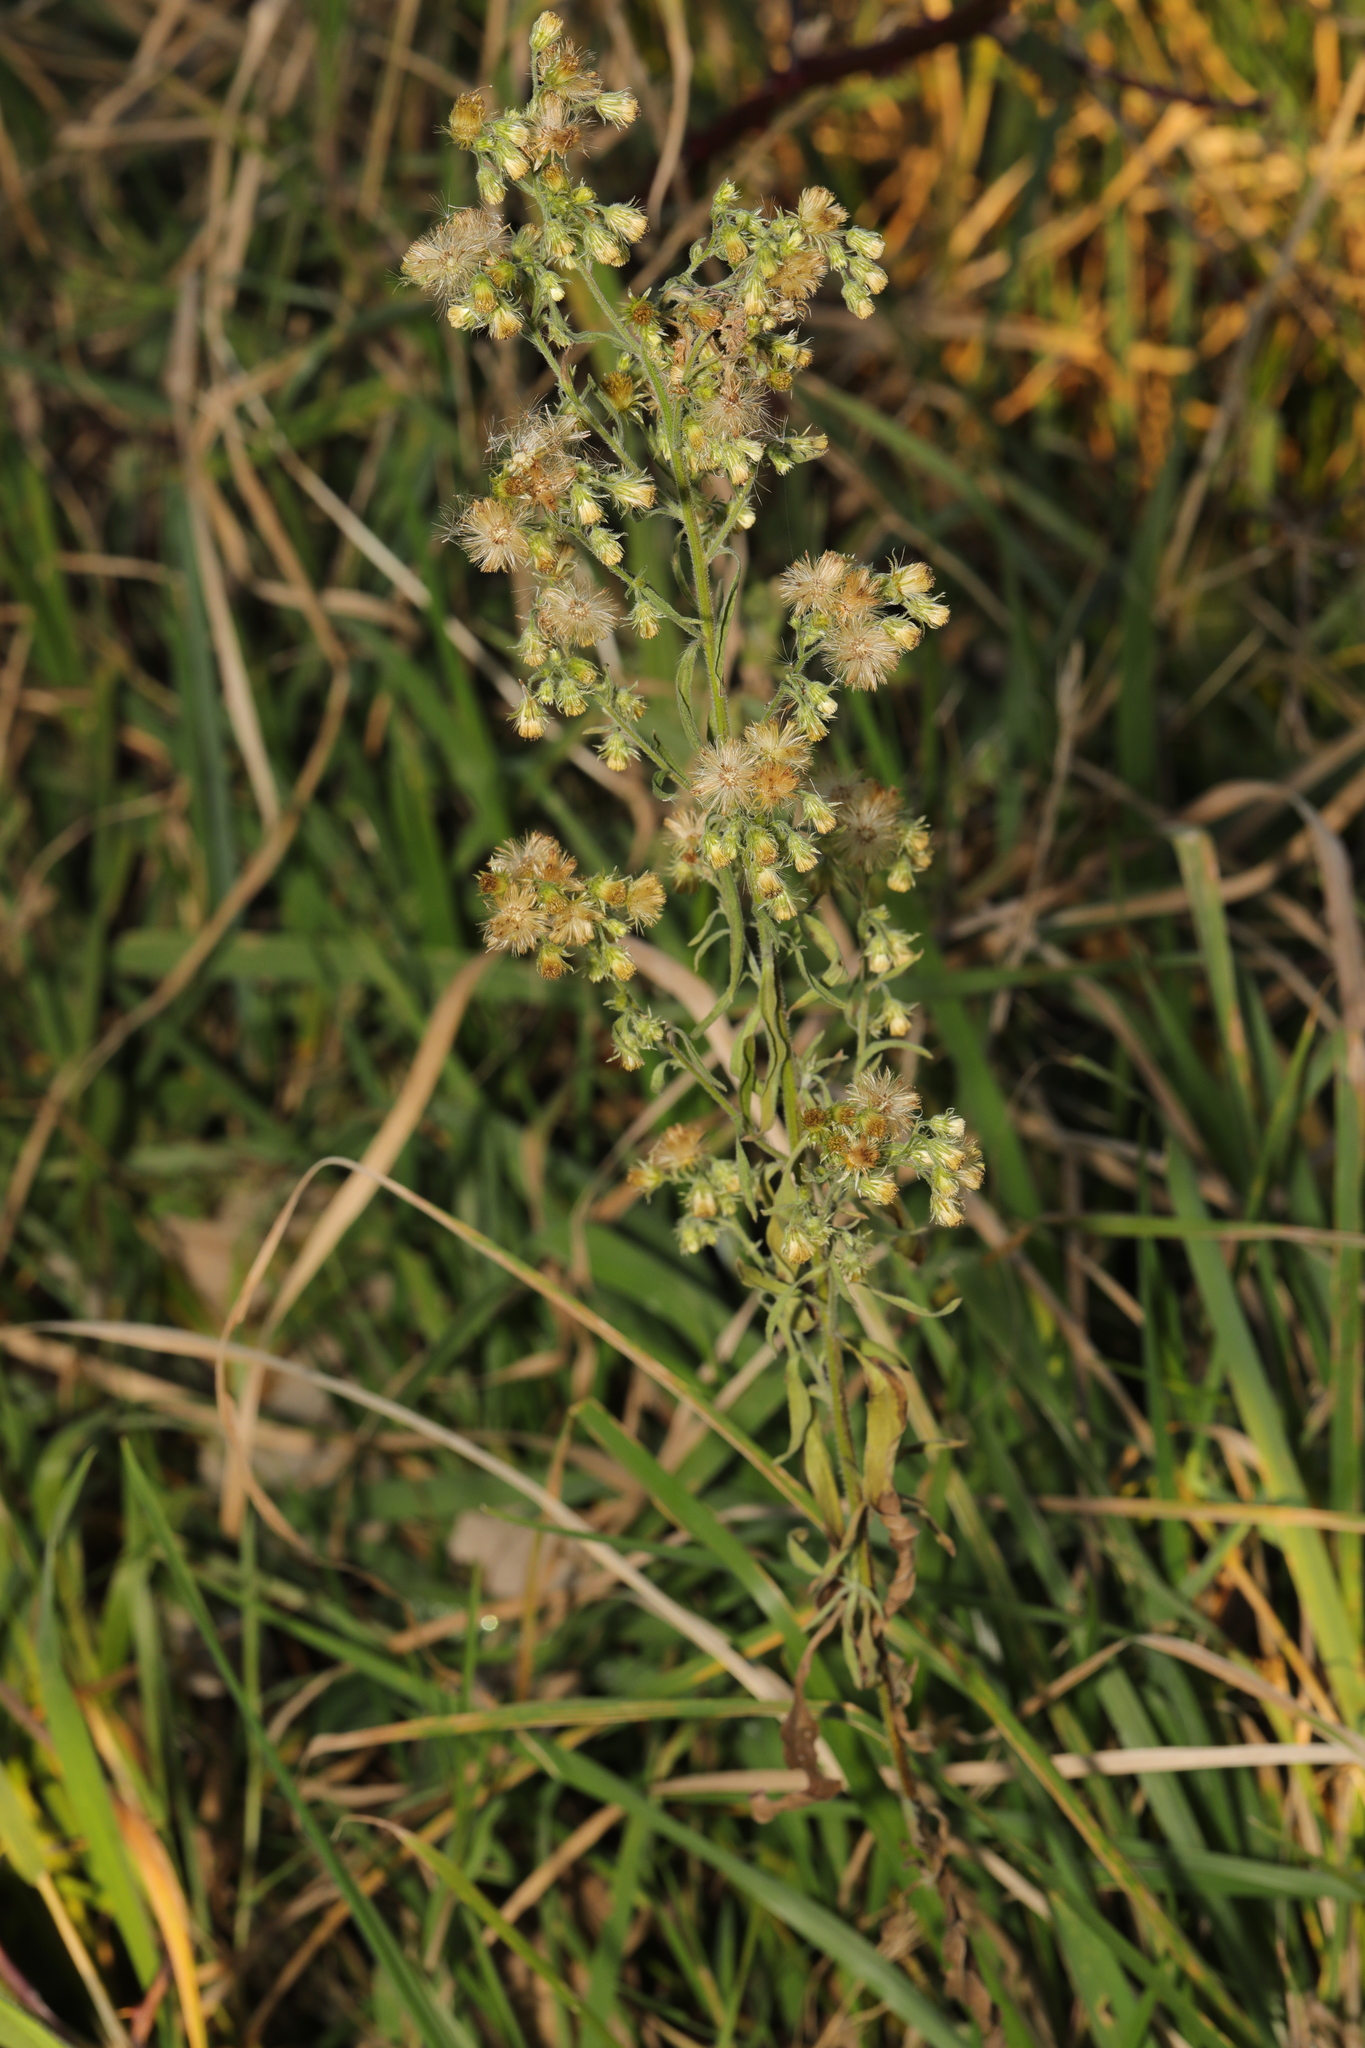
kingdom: Plantae
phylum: Tracheophyta
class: Magnoliopsida
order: Asterales
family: Asteraceae
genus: Erigeron
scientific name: Erigeron canadensis
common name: Canadian fleabane
